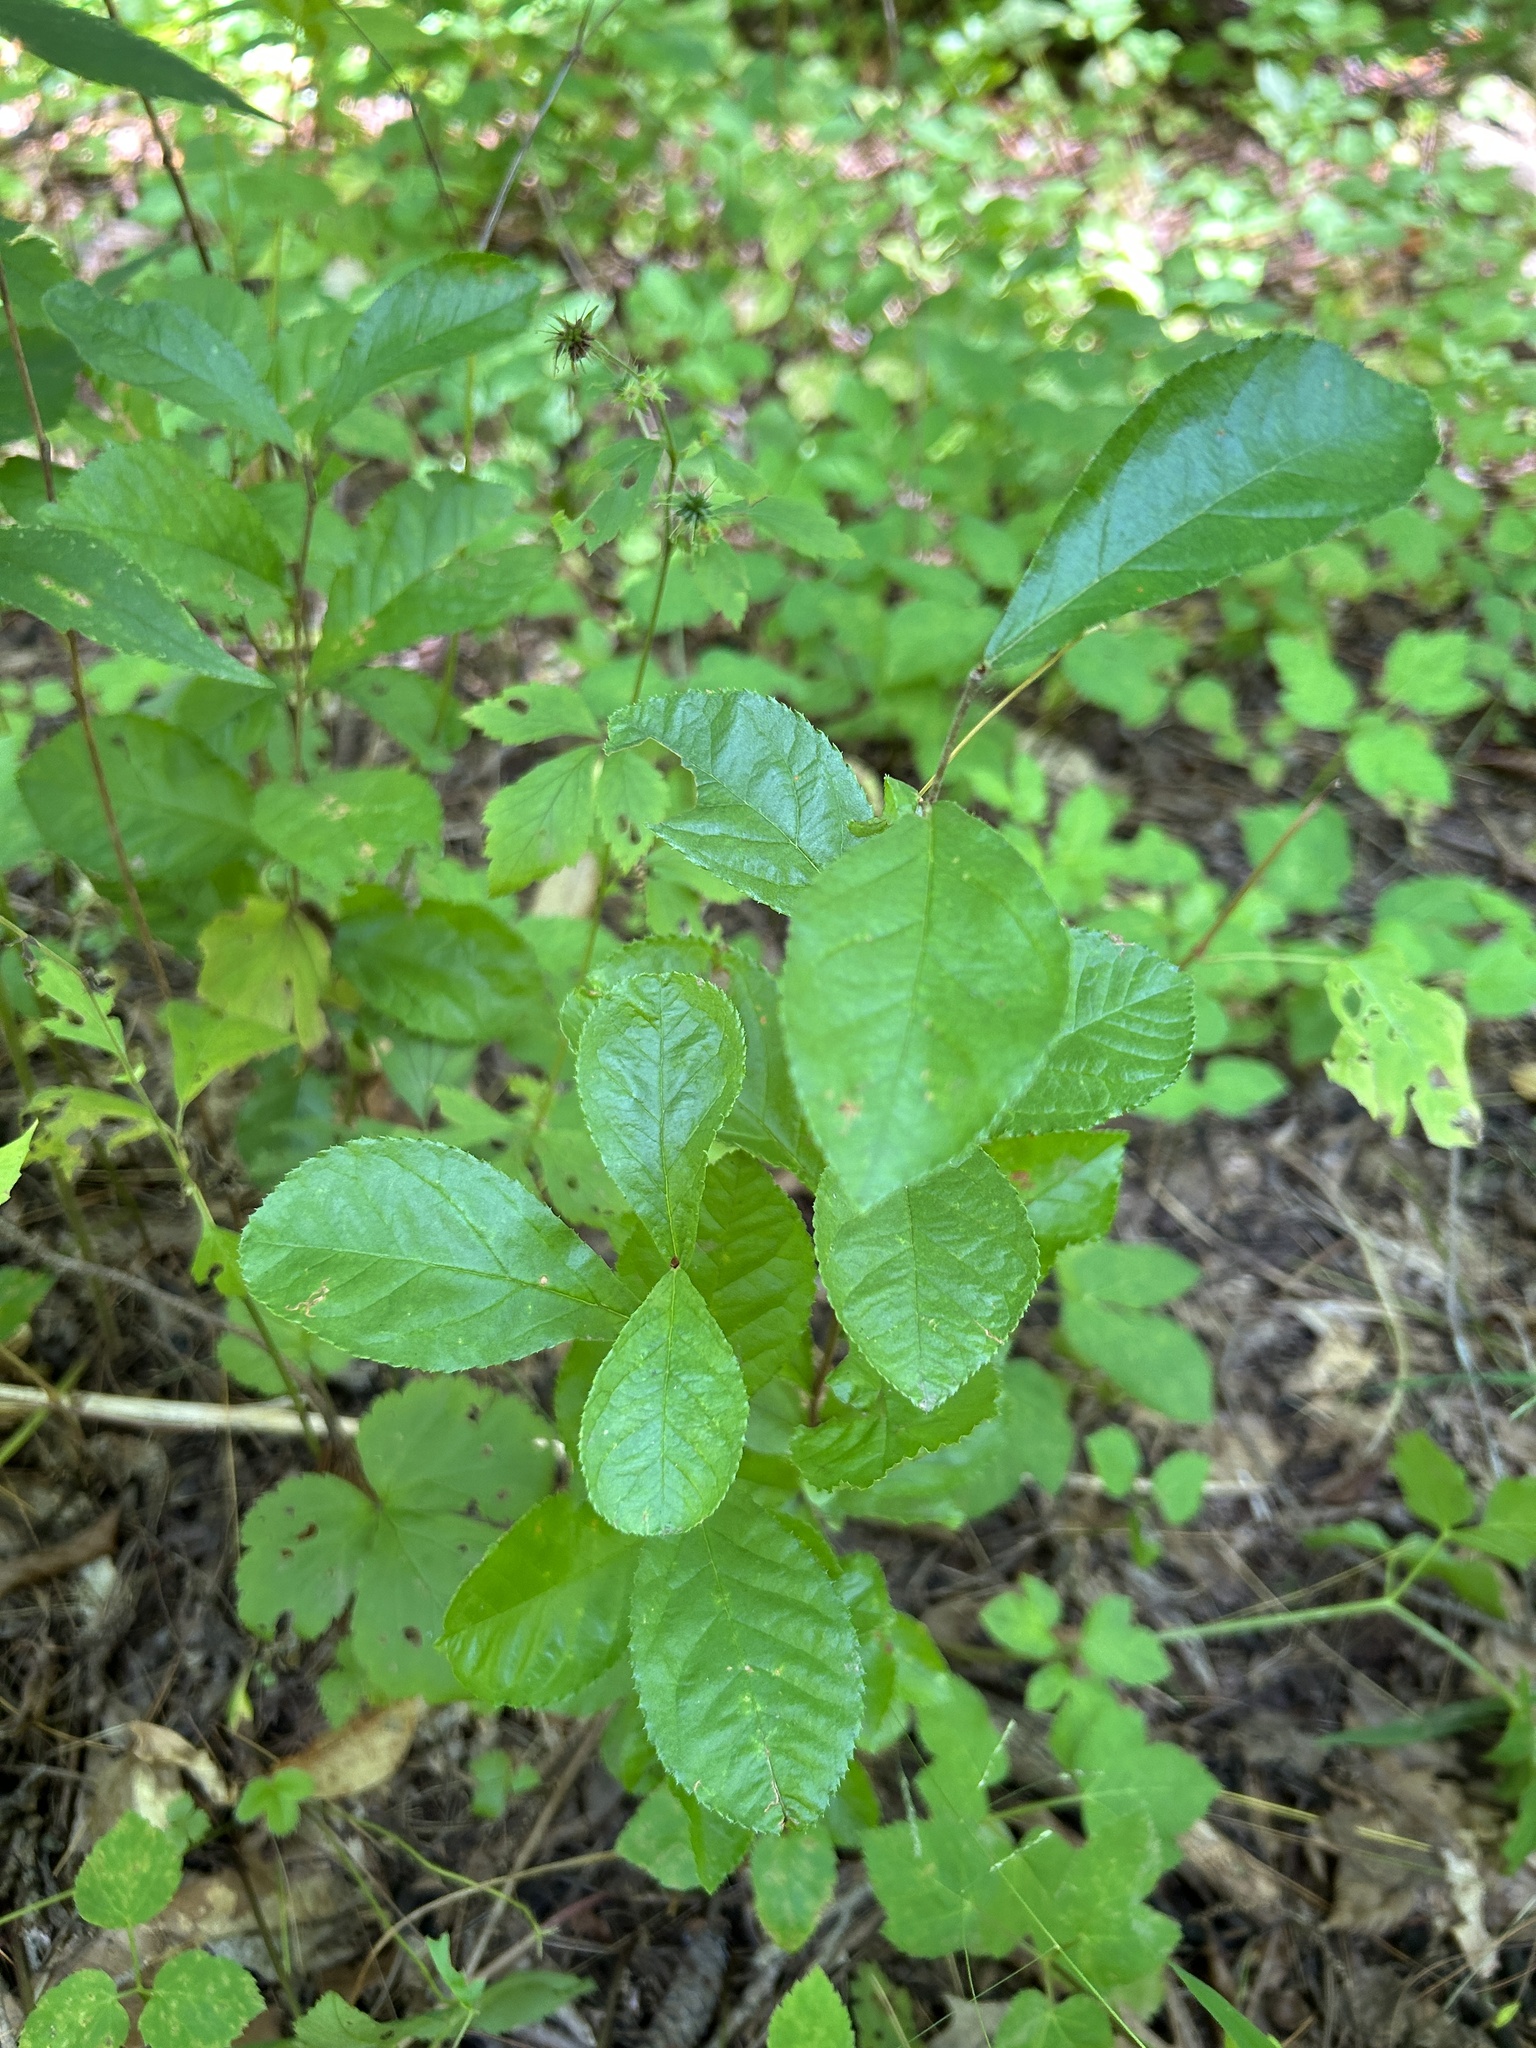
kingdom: Plantae
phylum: Tracheophyta
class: Magnoliopsida
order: Rosales
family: Rosaceae
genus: Pourthiaea
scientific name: Pourthiaea villosa
